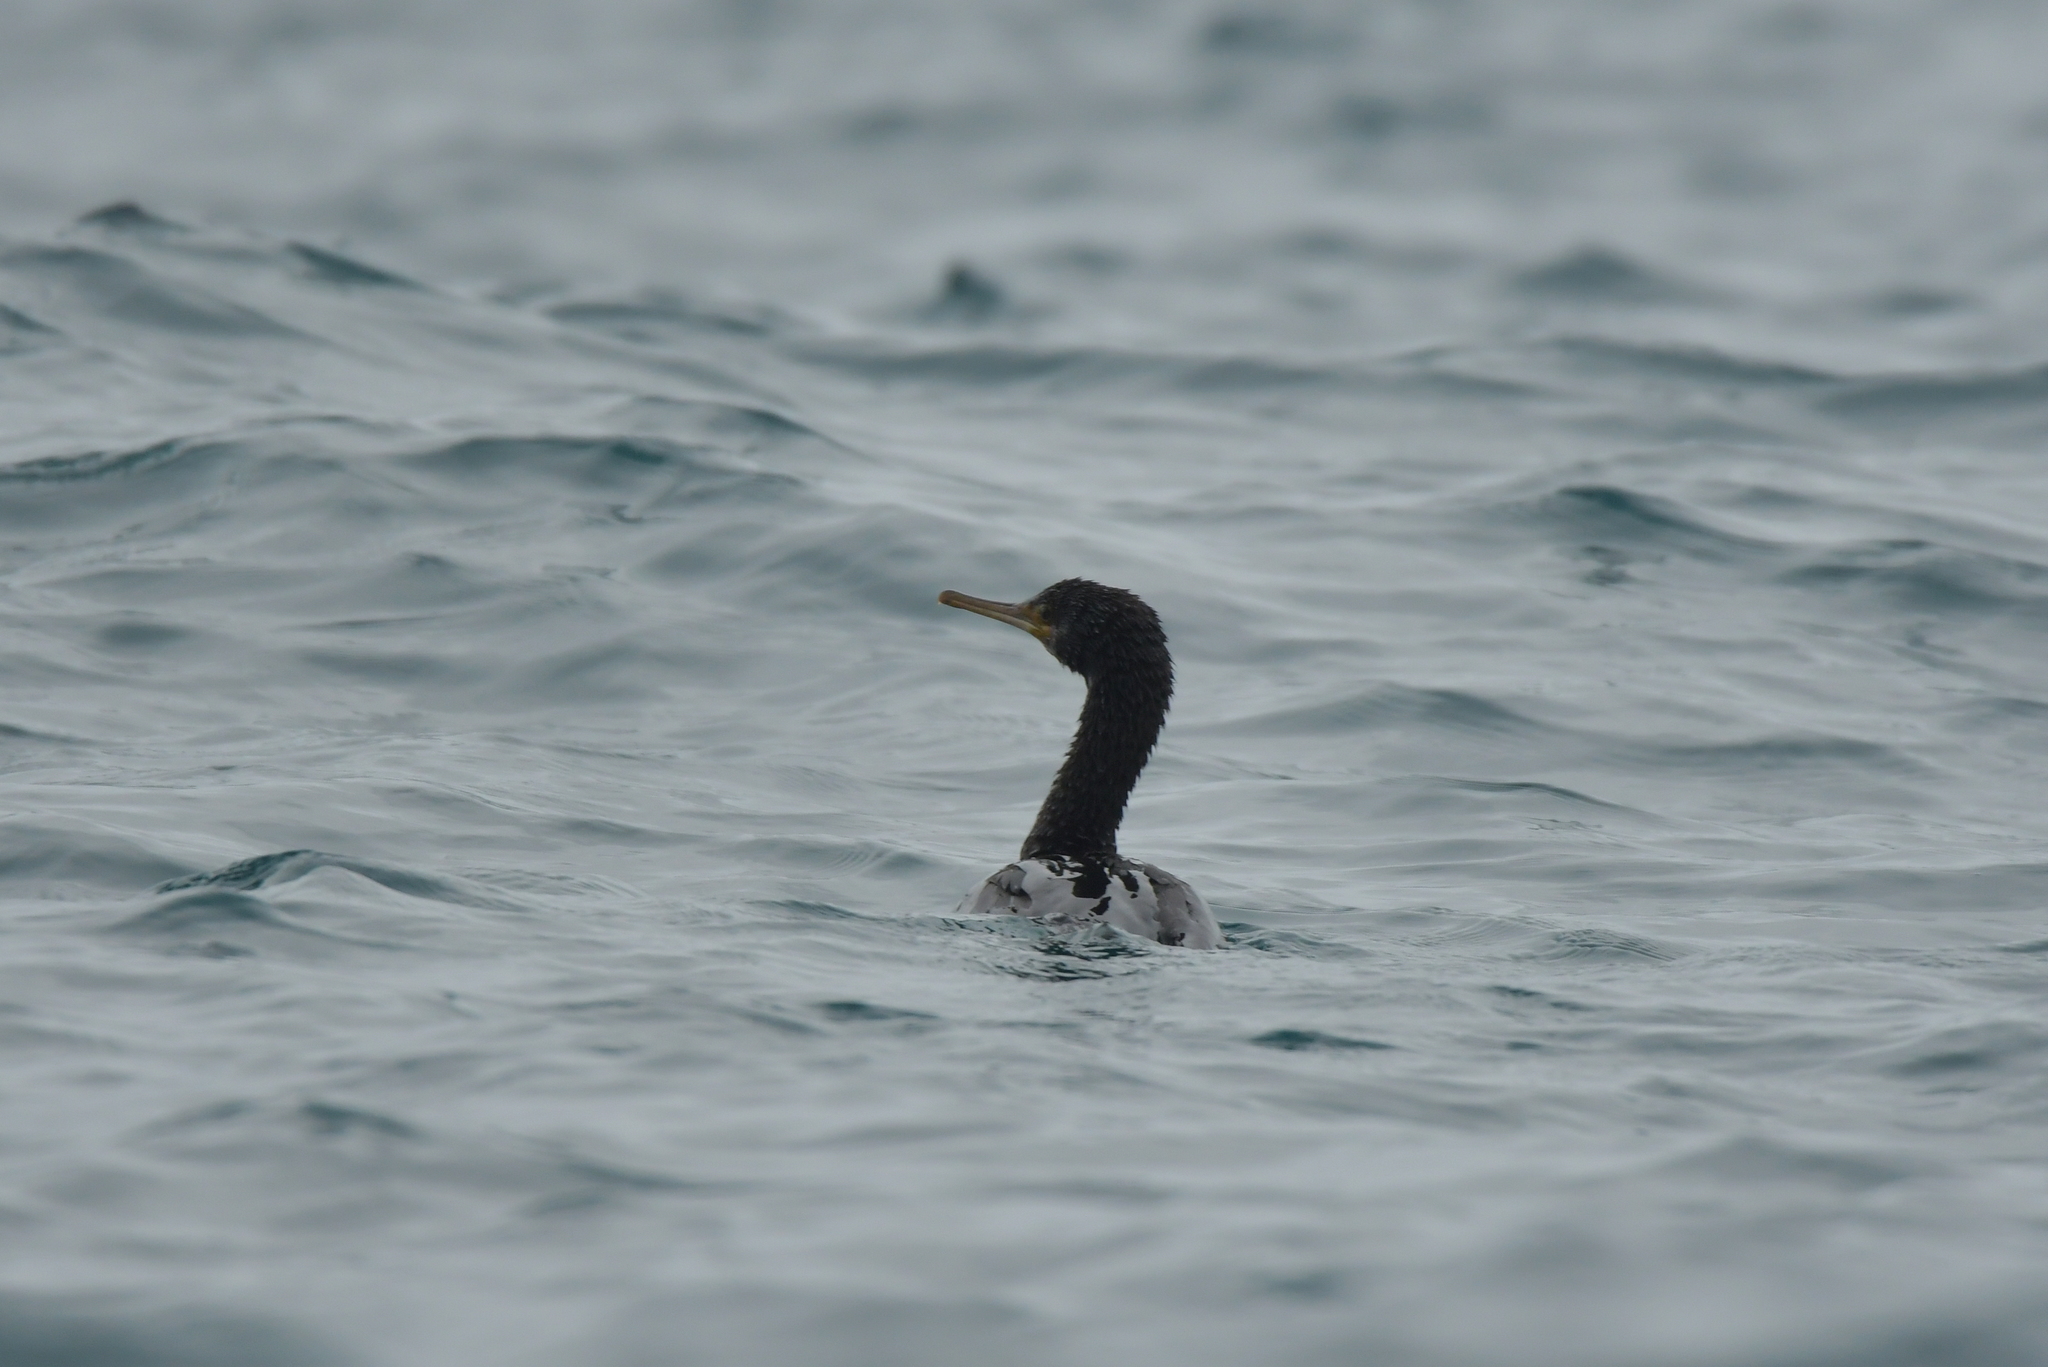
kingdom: Animalia
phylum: Chordata
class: Aves
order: Suliformes
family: Phalacrocoracidae
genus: Phalacrocorax
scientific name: Phalacrocorax featherstoni
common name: Pitt shag
